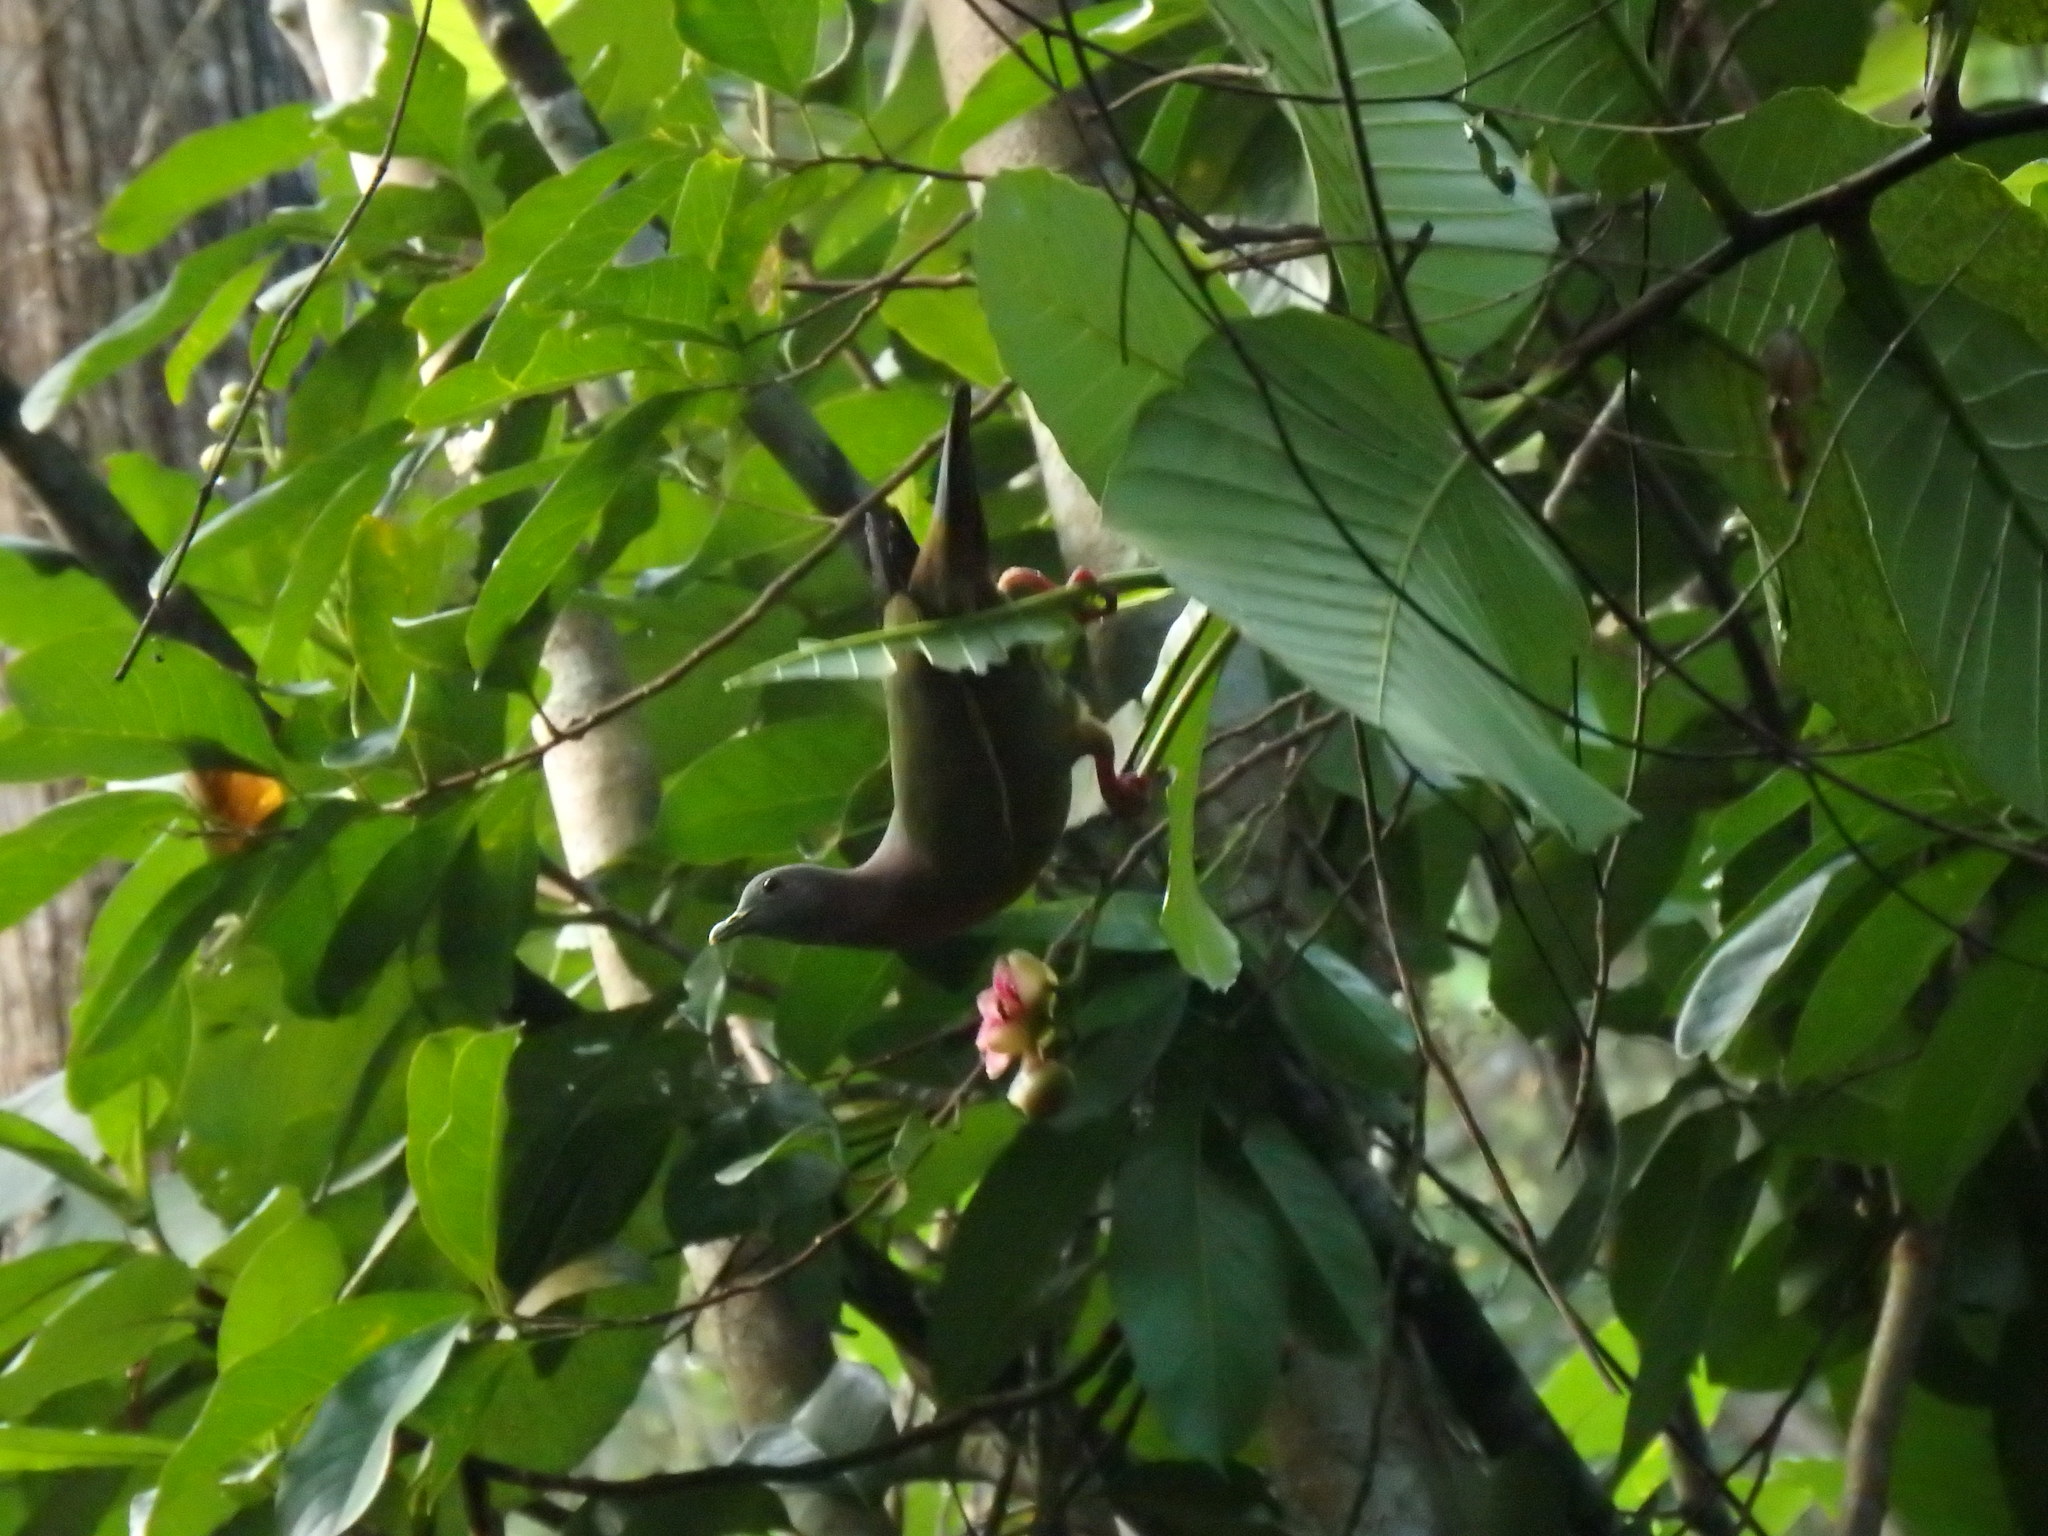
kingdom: Animalia
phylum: Chordata
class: Aves
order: Columbiformes
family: Columbidae
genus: Treron
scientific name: Treron vernans
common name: Pink-necked green pigeon
